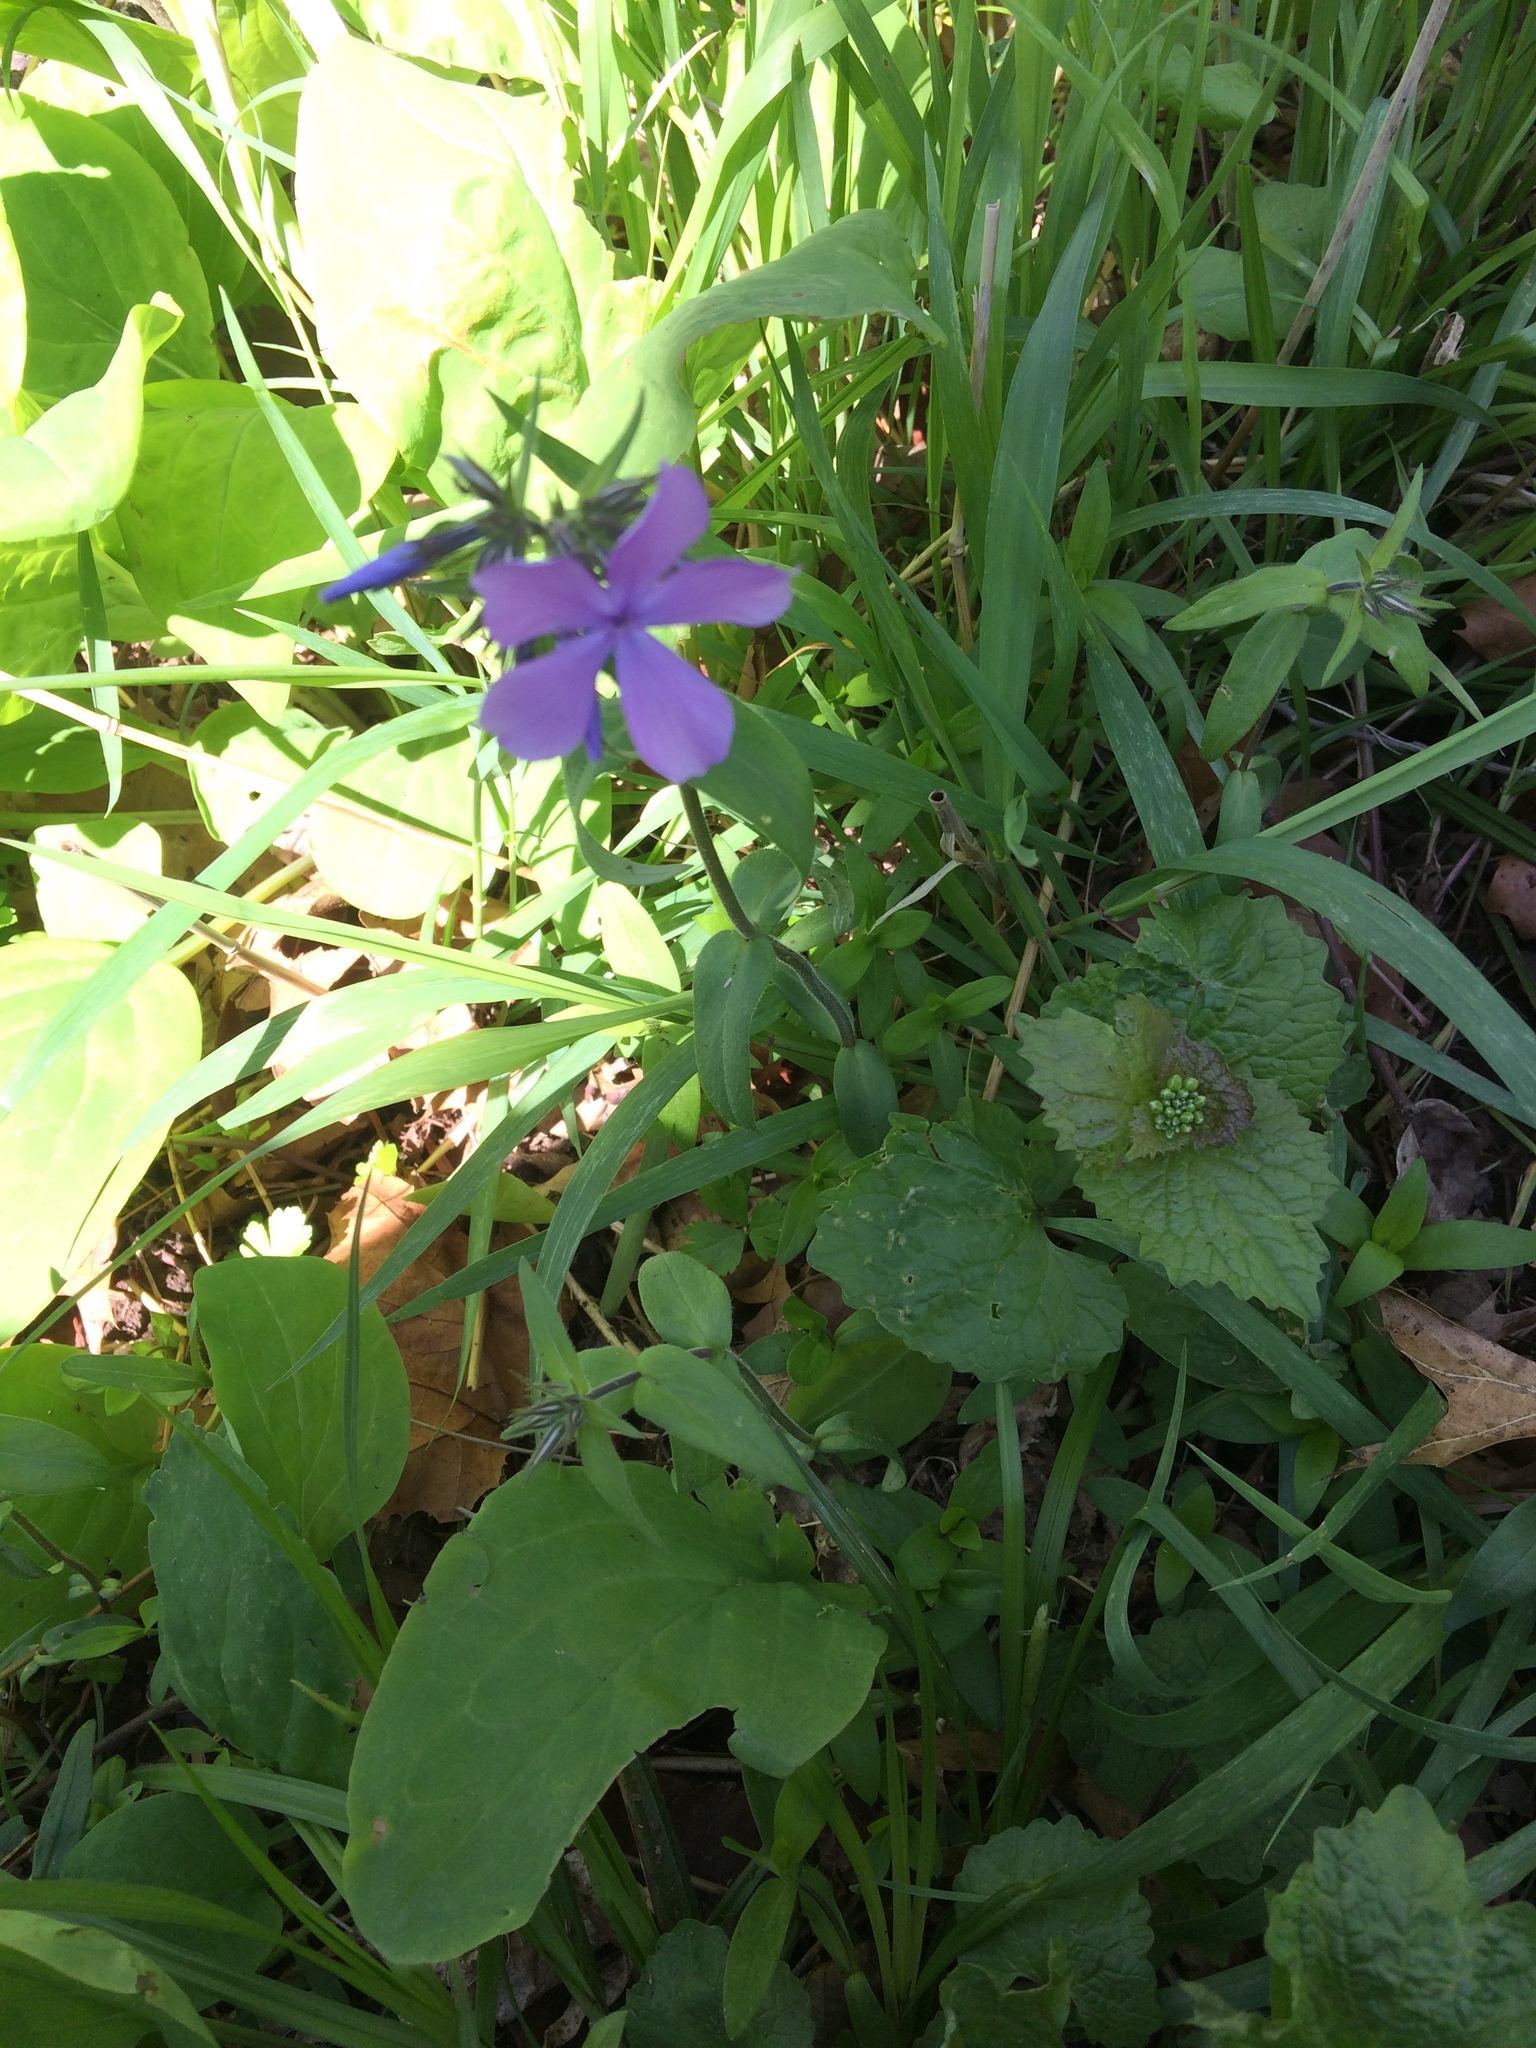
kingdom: Plantae
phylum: Tracheophyta
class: Magnoliopsida
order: Ericales
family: Polemoniaceae
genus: Phlox
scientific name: Phlox divaricata
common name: Blue phlox
